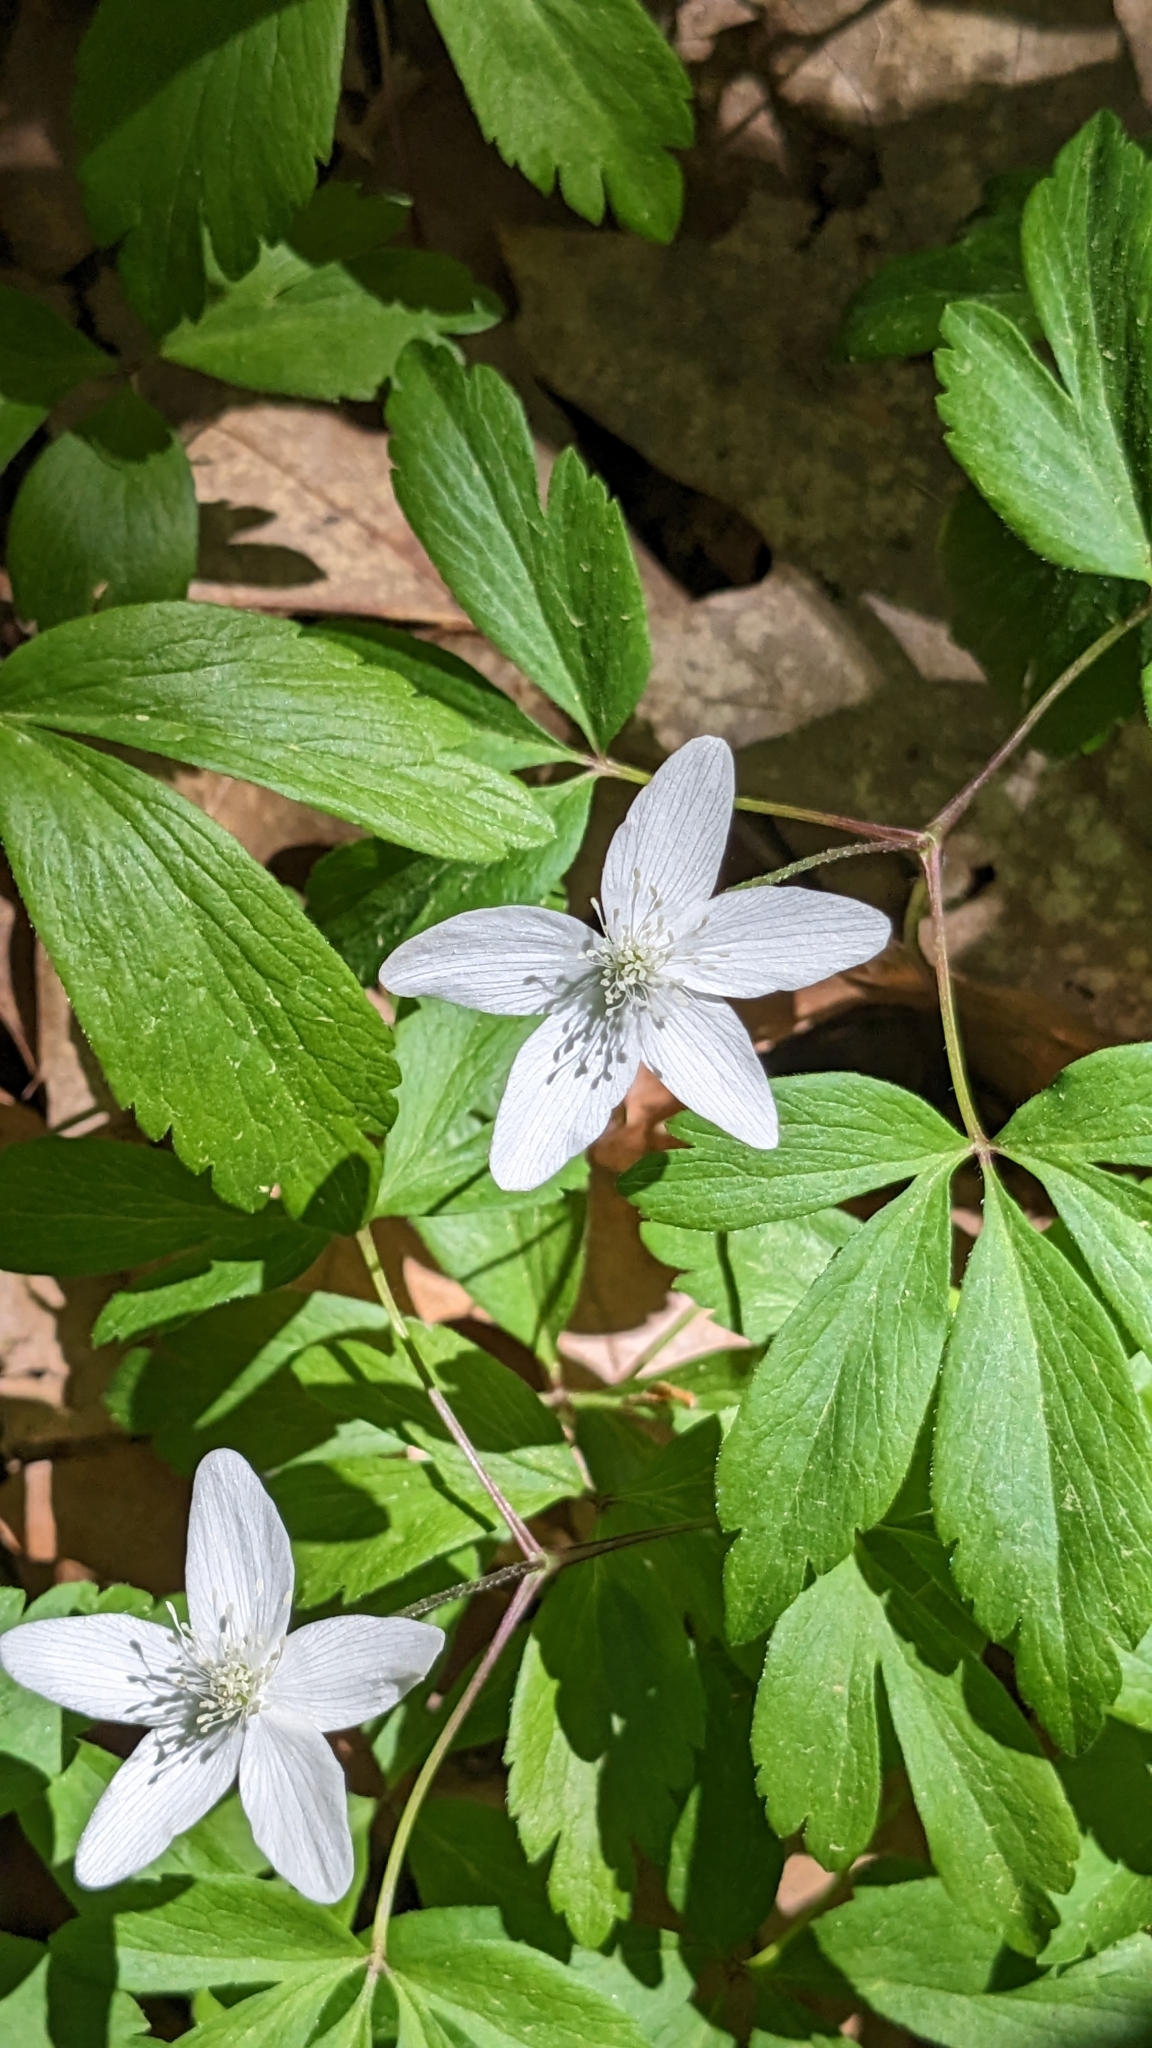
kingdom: Plantae
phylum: Tracheophyta
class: Magnoliopsida
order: Ranunculales
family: Ranunculaceae
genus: Anemone
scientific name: Anemone quinquefolia
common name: Wood anemone
